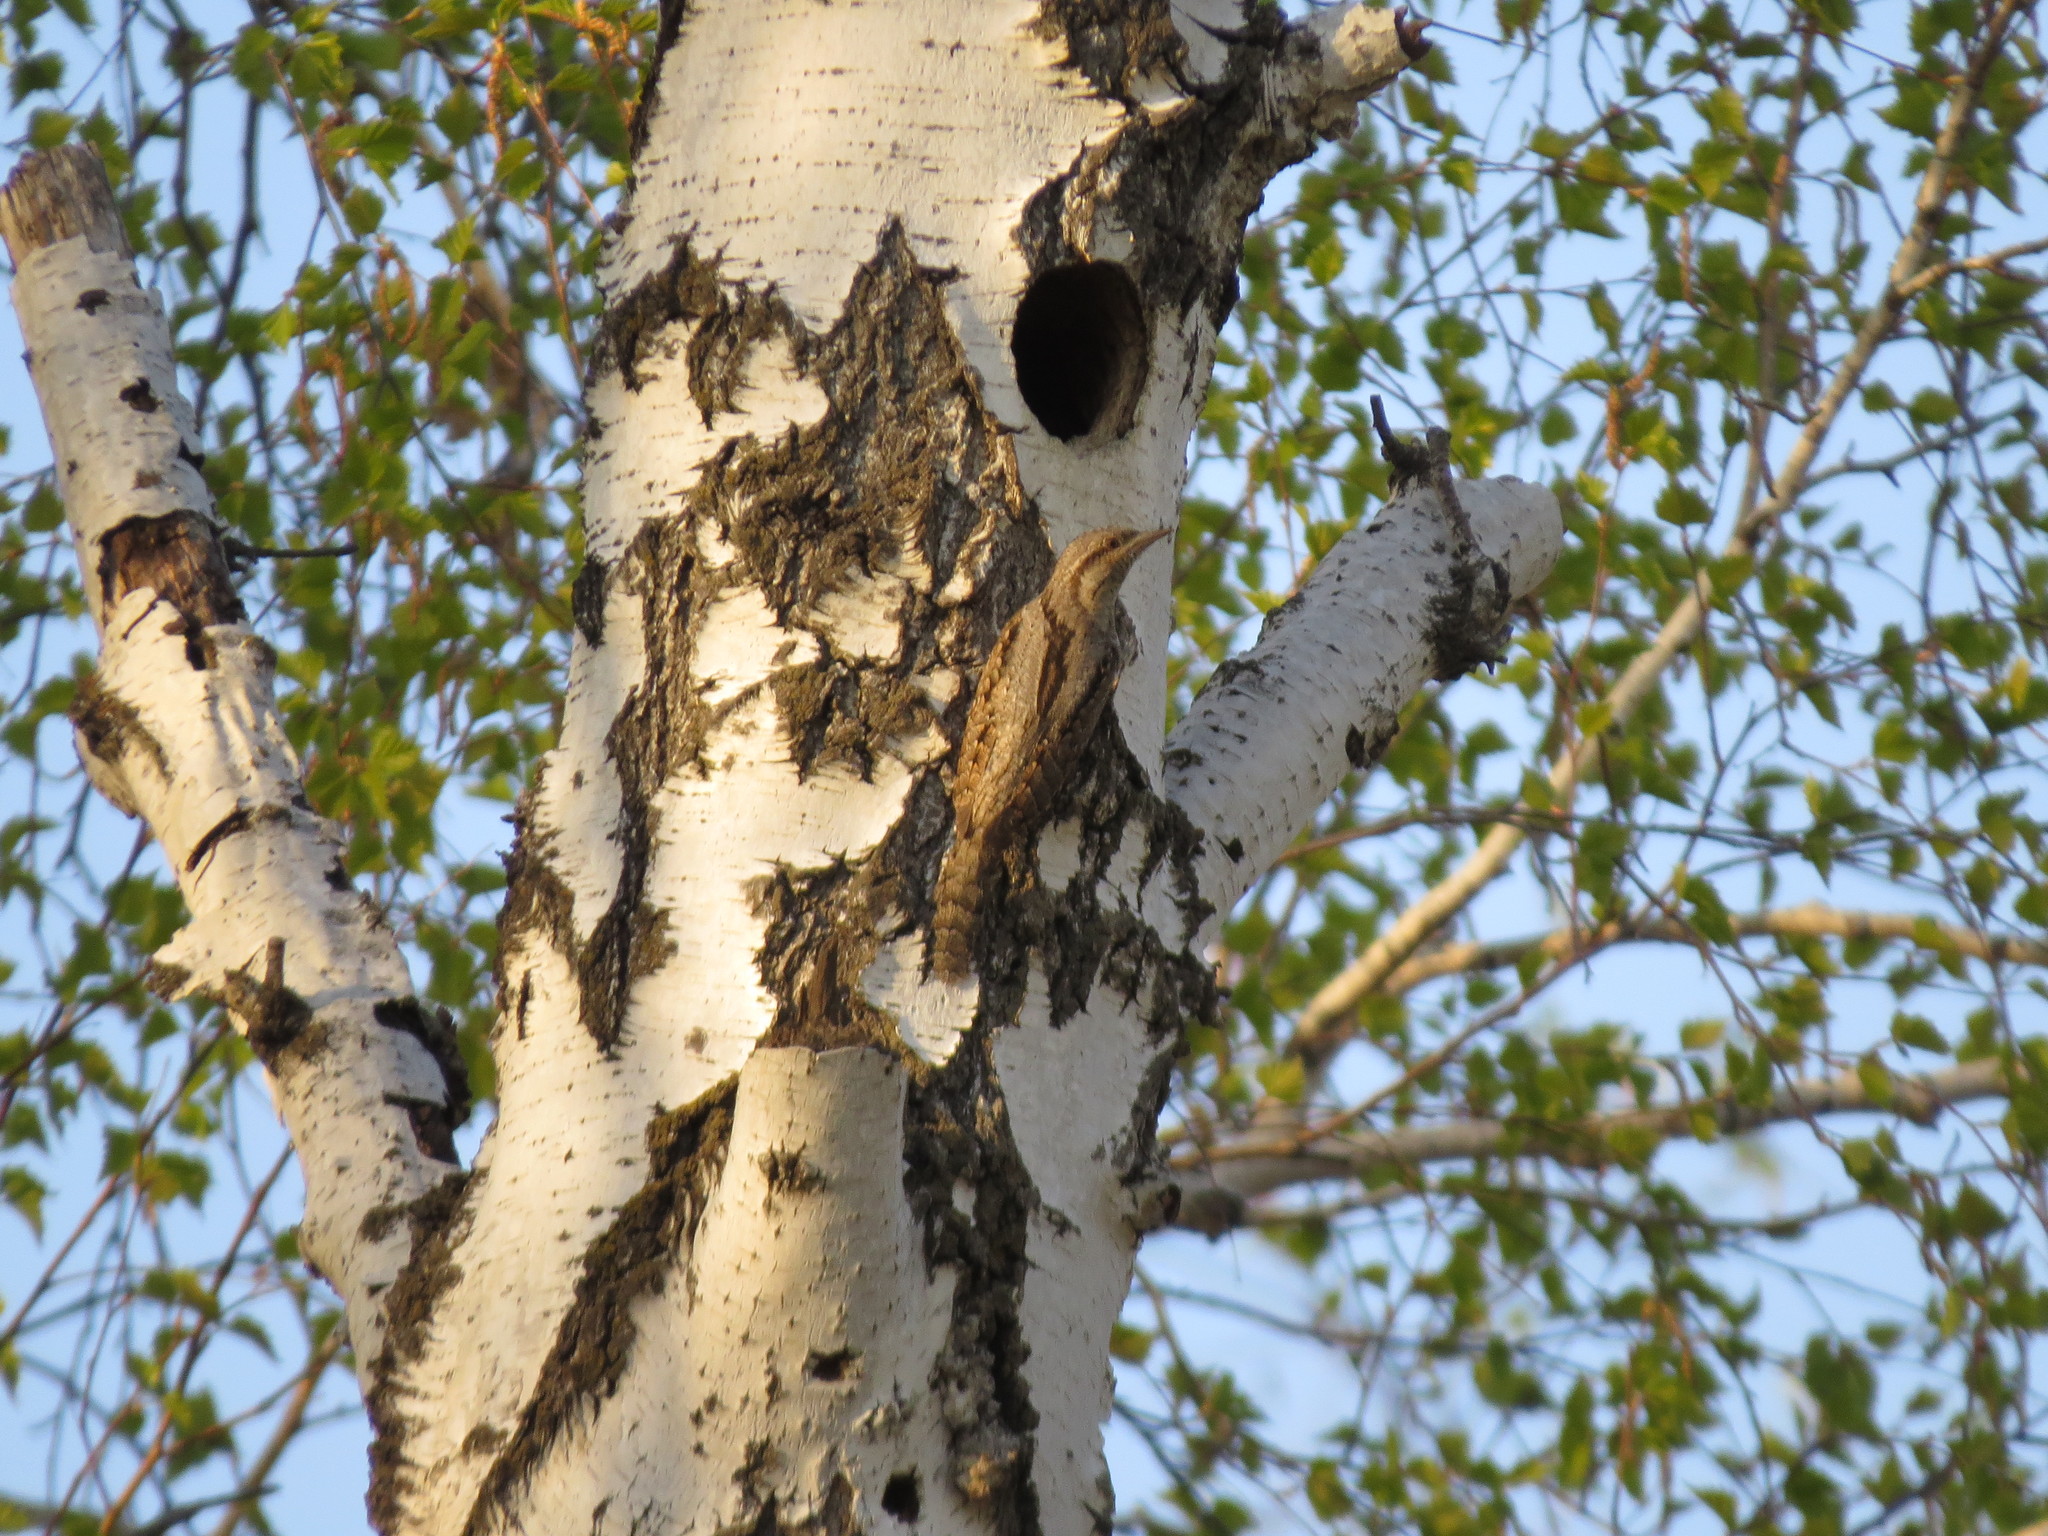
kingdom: Animalia
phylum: Chordata
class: Aves
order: Piciformes
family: Picidae
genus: Jynx
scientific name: Jynx torquilla
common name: Eurasian wryneck
